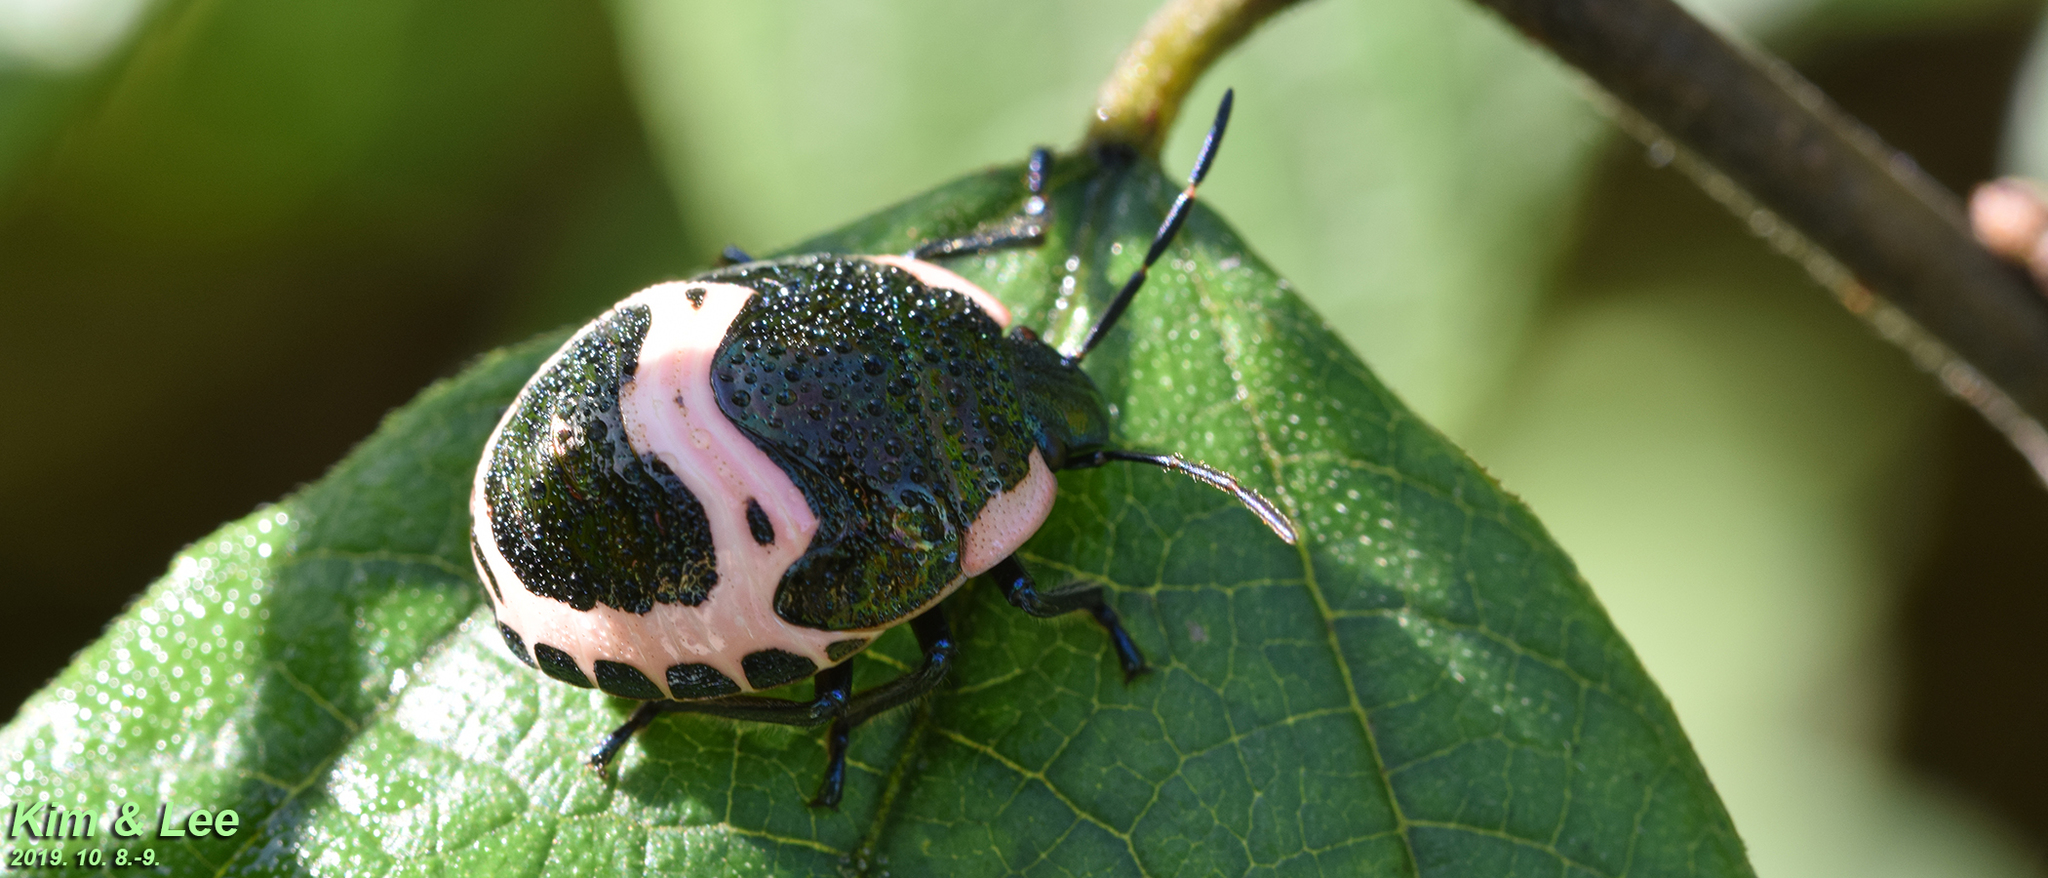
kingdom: Animalia
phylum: Arthropoda
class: Insecta
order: Hemiptera
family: Scutelleridae
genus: Poecilocoris
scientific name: Poecilocoris lewisi
